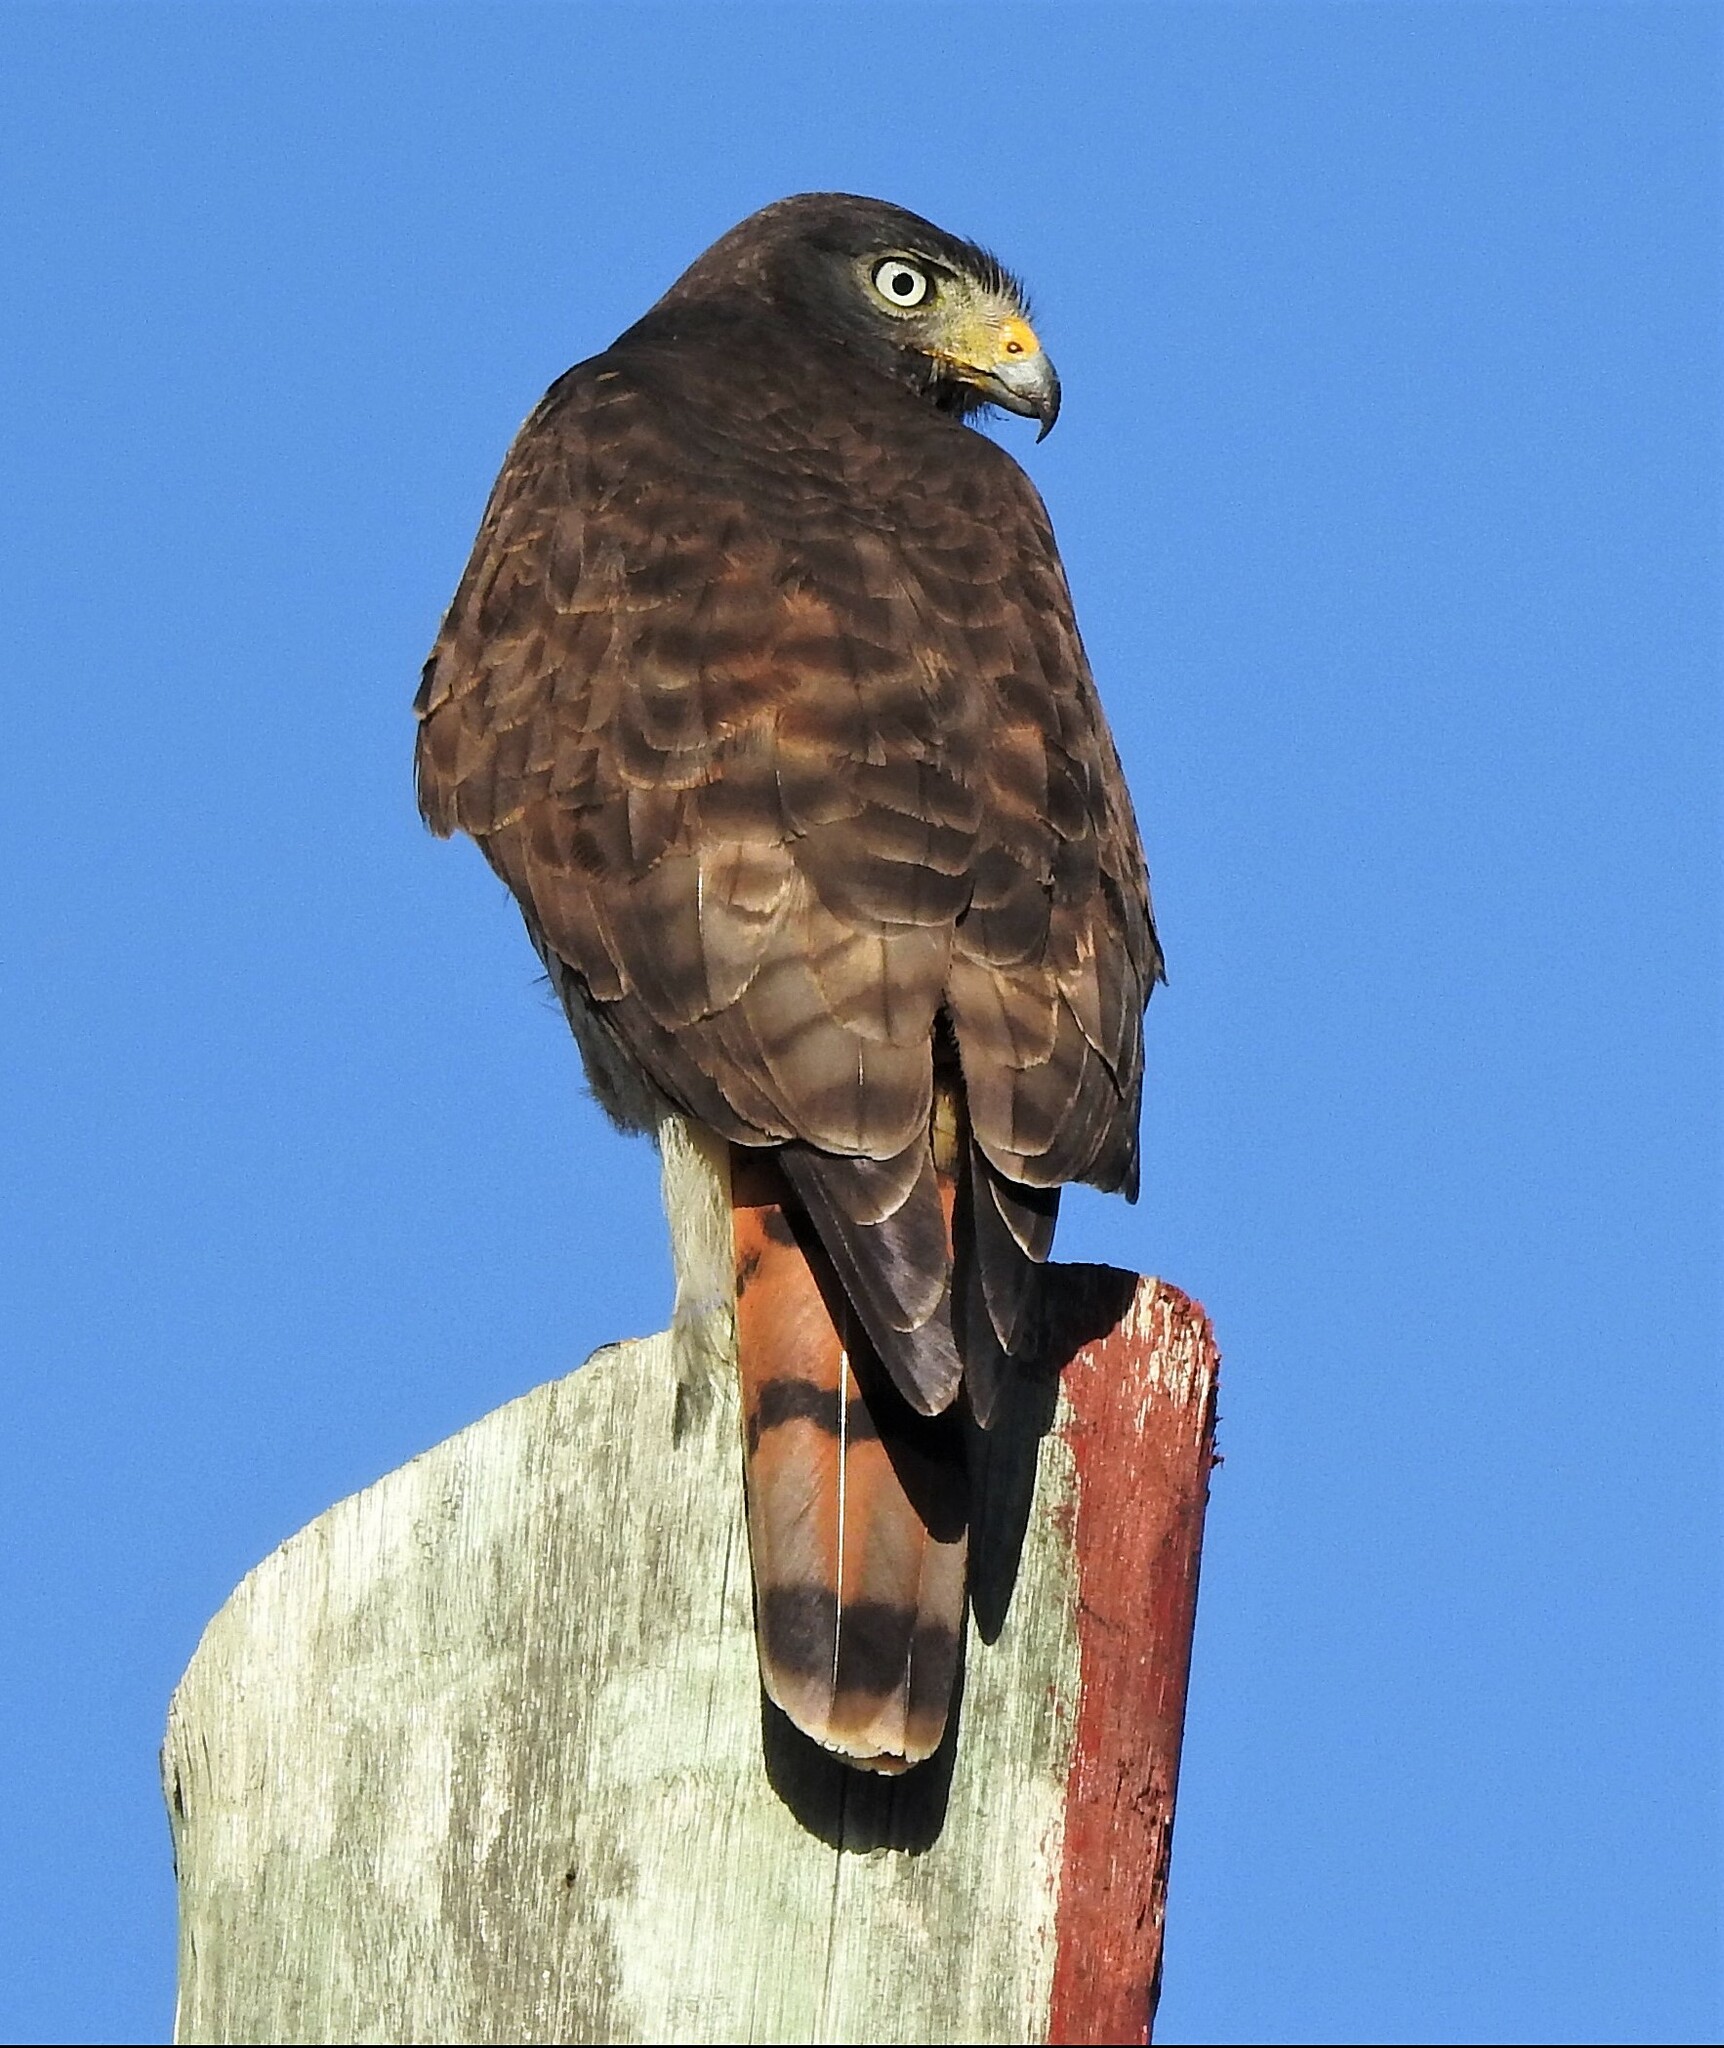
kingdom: Animalia
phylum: Chordata
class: Aves
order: Accipitriformes
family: Accipitridae
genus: Rupornis
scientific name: Rupornis magnirostris
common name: Roadside hawk
